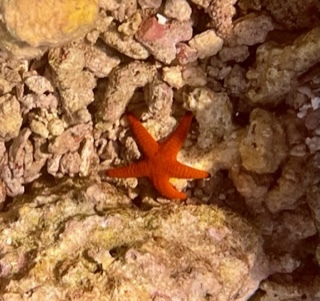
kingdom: Animalia
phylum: Echinodermata
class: Asteroidea
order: Valvatida
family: Goniasteridae
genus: Fromia
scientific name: Fromia indica
